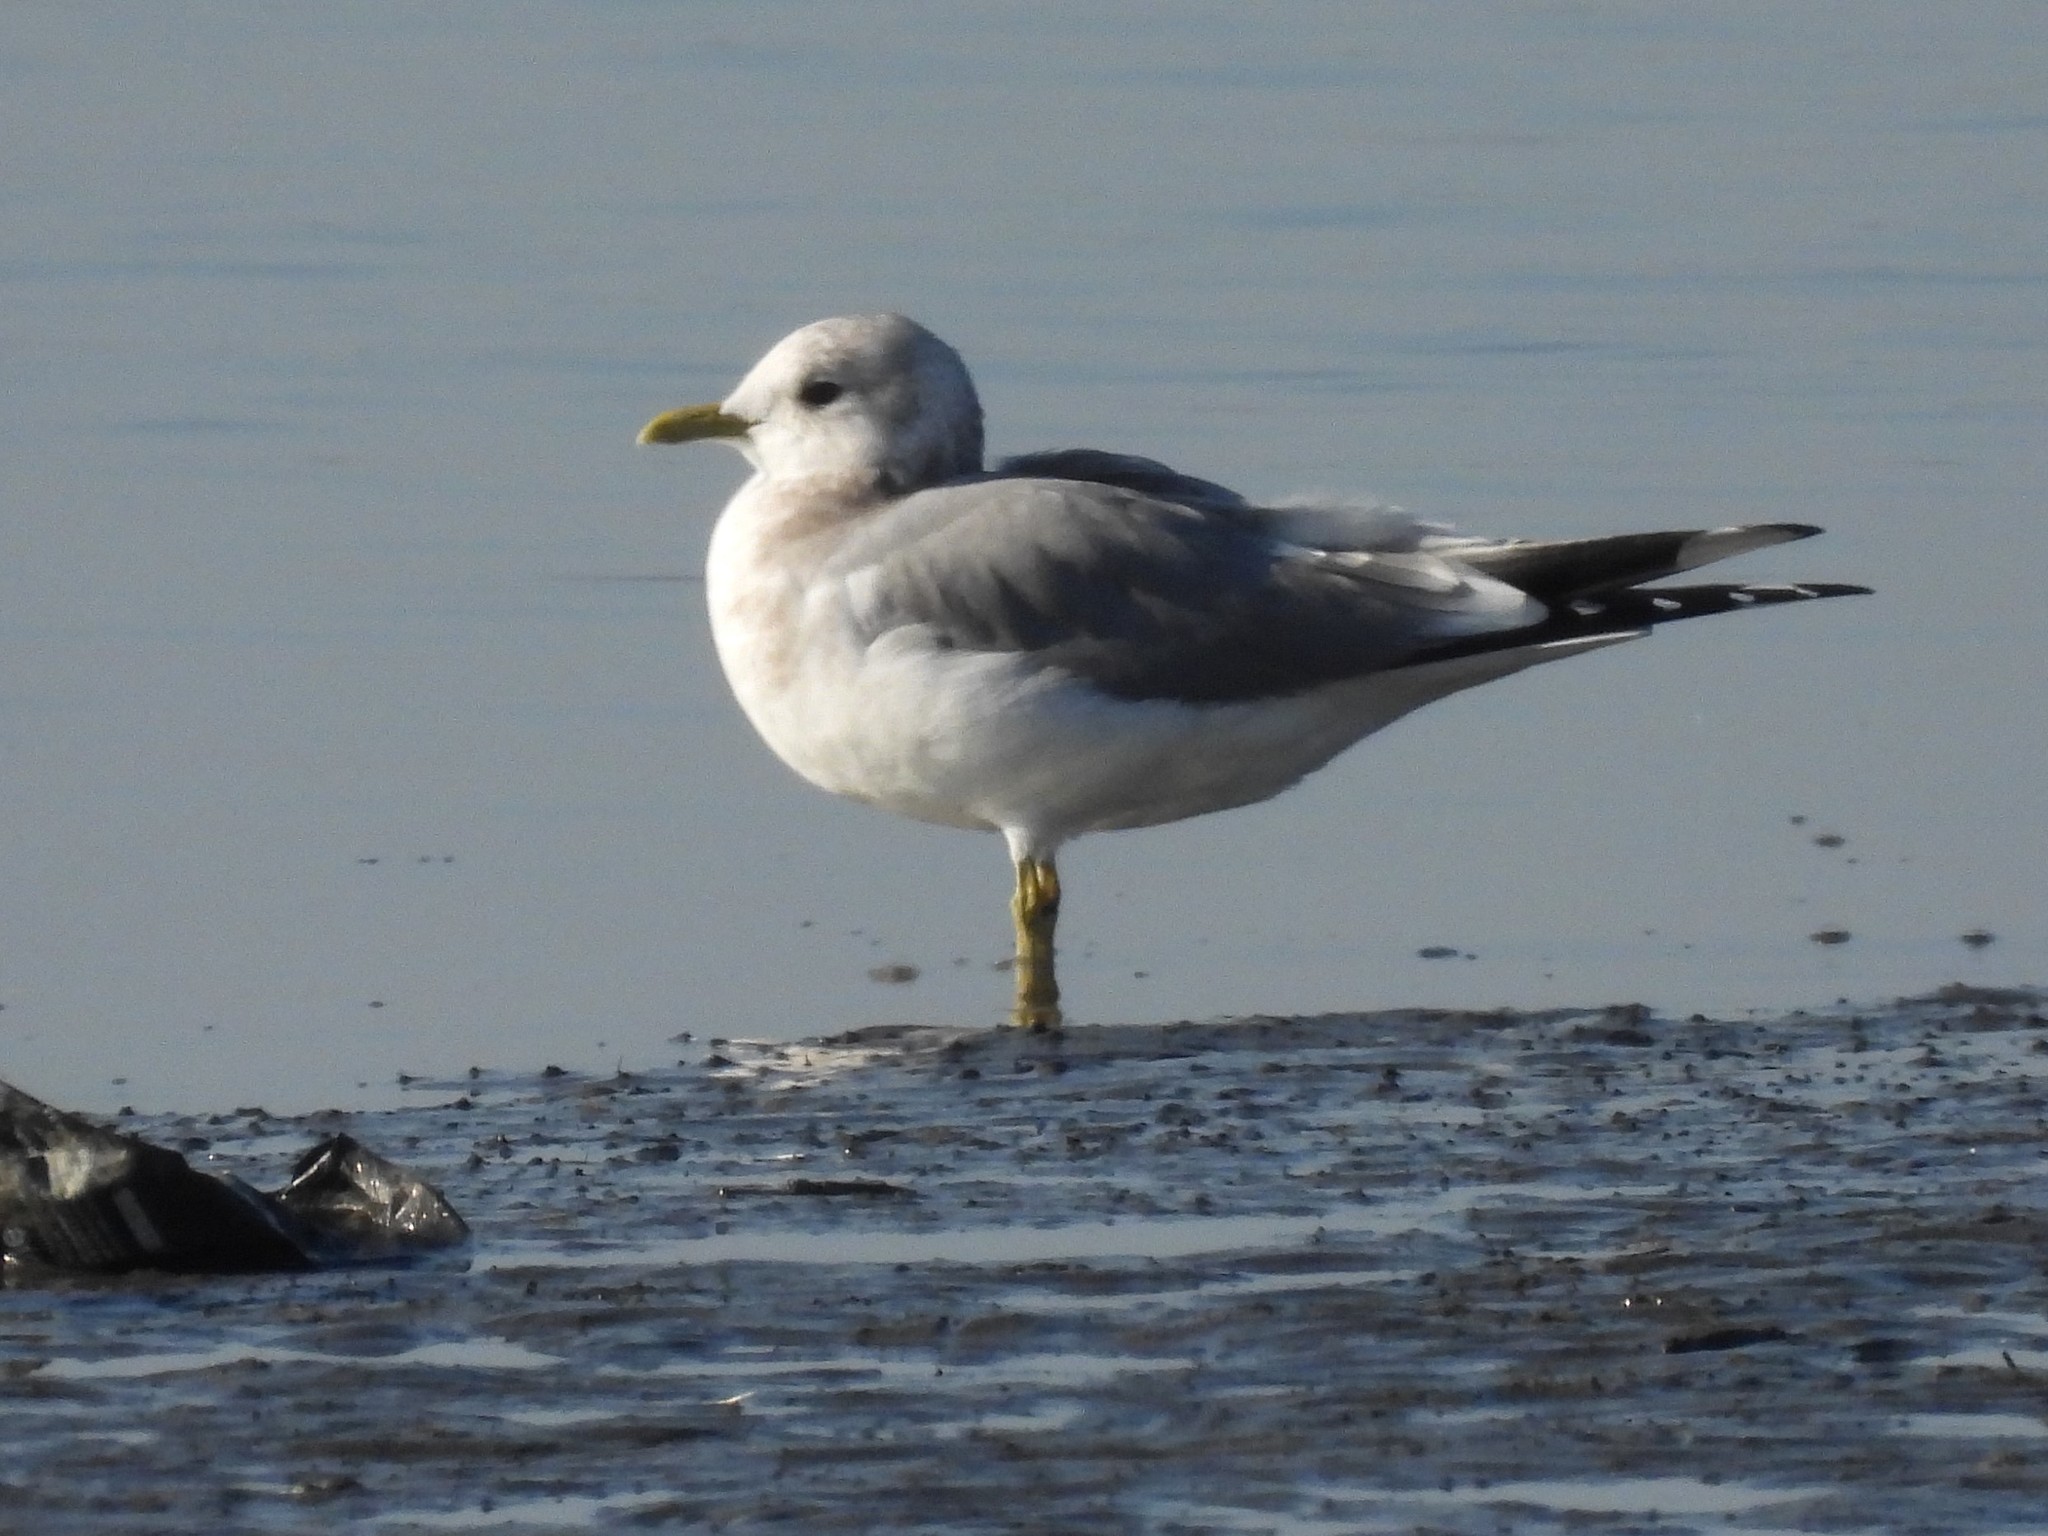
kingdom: Animalia
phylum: Chordata
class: Aves
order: Charadriiformes
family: Laridae
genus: Larus
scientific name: Larus brachyrhynchus
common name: Short-billed gull
